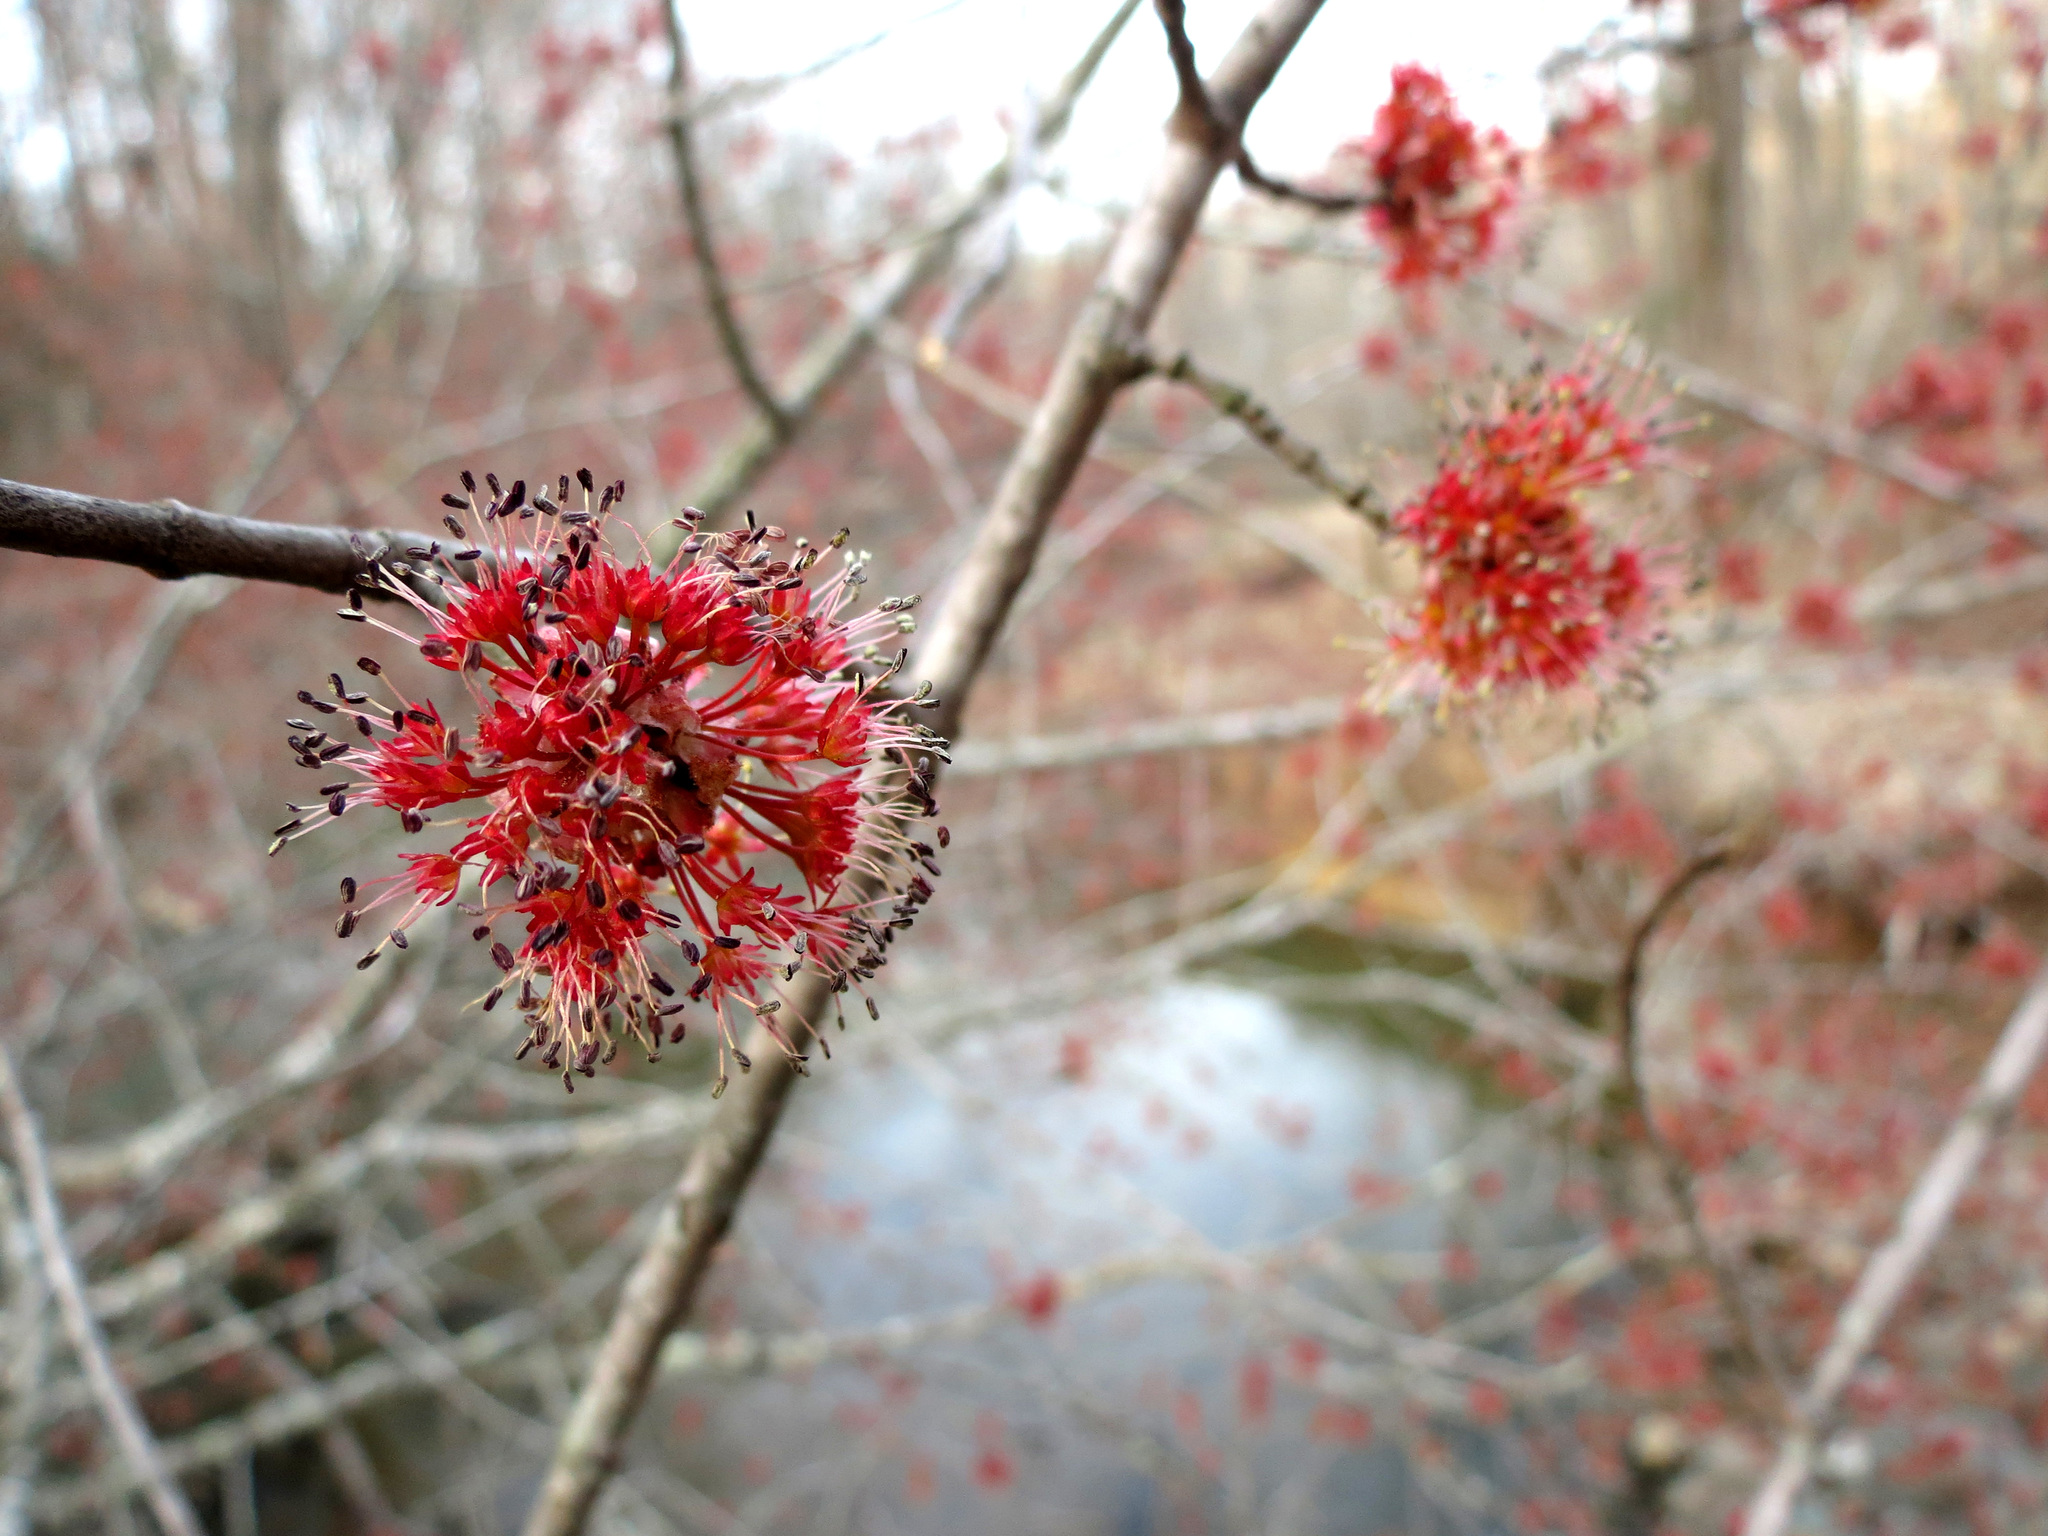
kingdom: Plantae
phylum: Tracheophyta
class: Magnoliopsida
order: Sapindales
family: Sapindaceae
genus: Acer
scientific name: Acer rubrum
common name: Red maple
